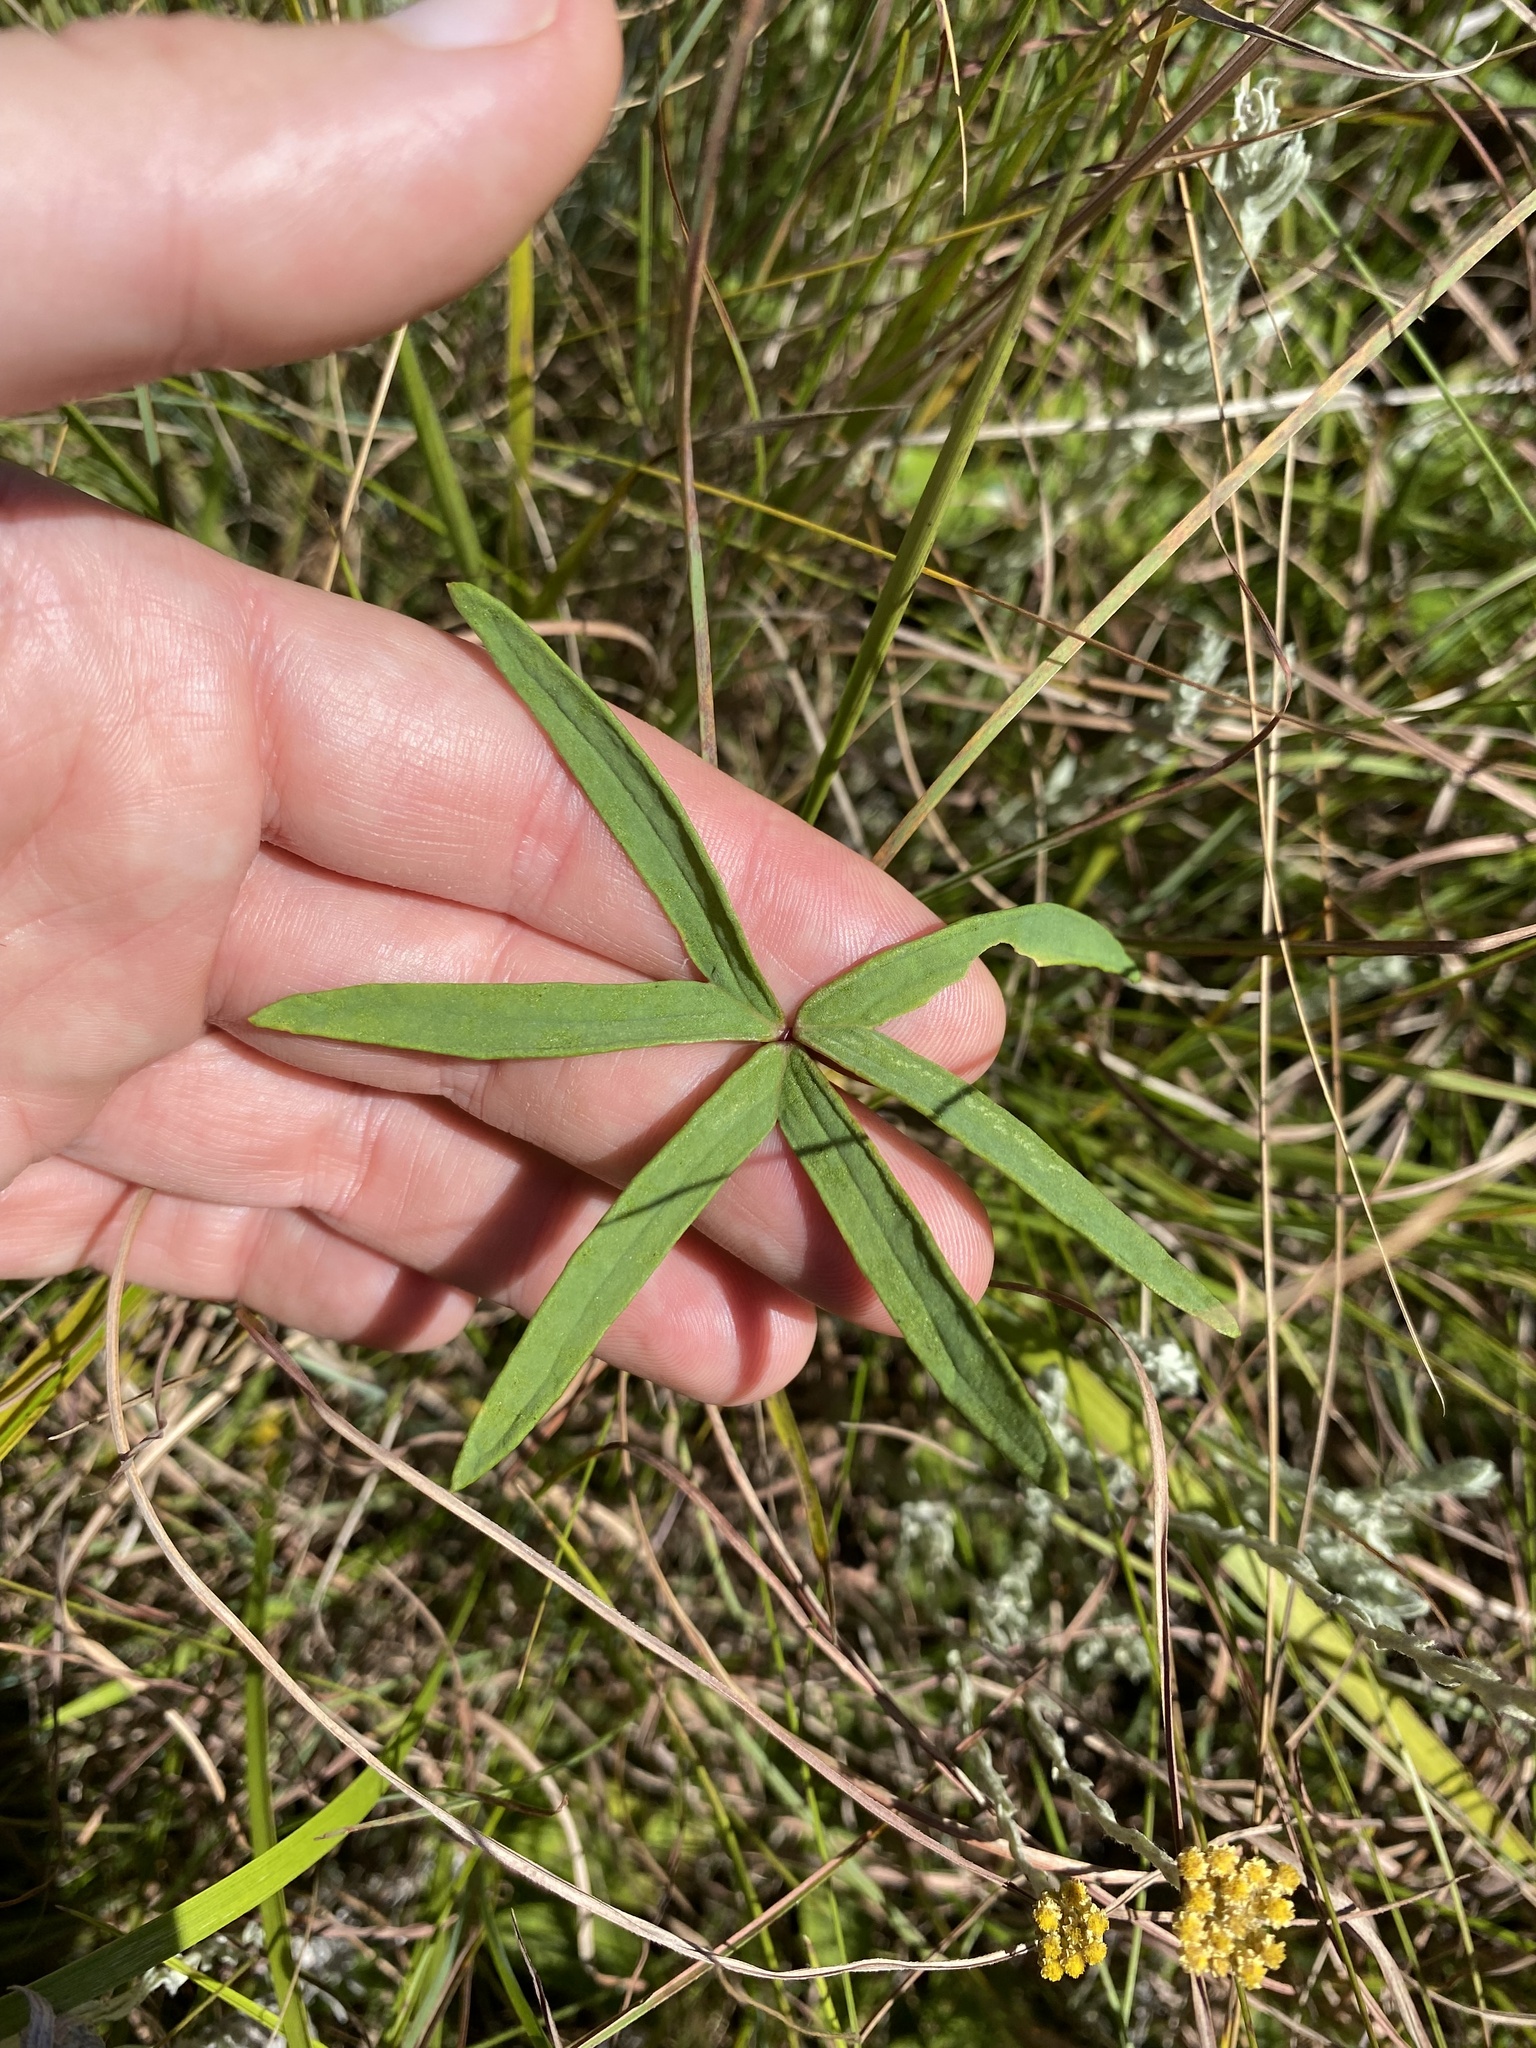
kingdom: Plantae
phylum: Tracheophyta
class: Magnoliopsida
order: Oxalidales
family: Oxalidaceae
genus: Oxalis
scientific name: Oxalis smithiana
